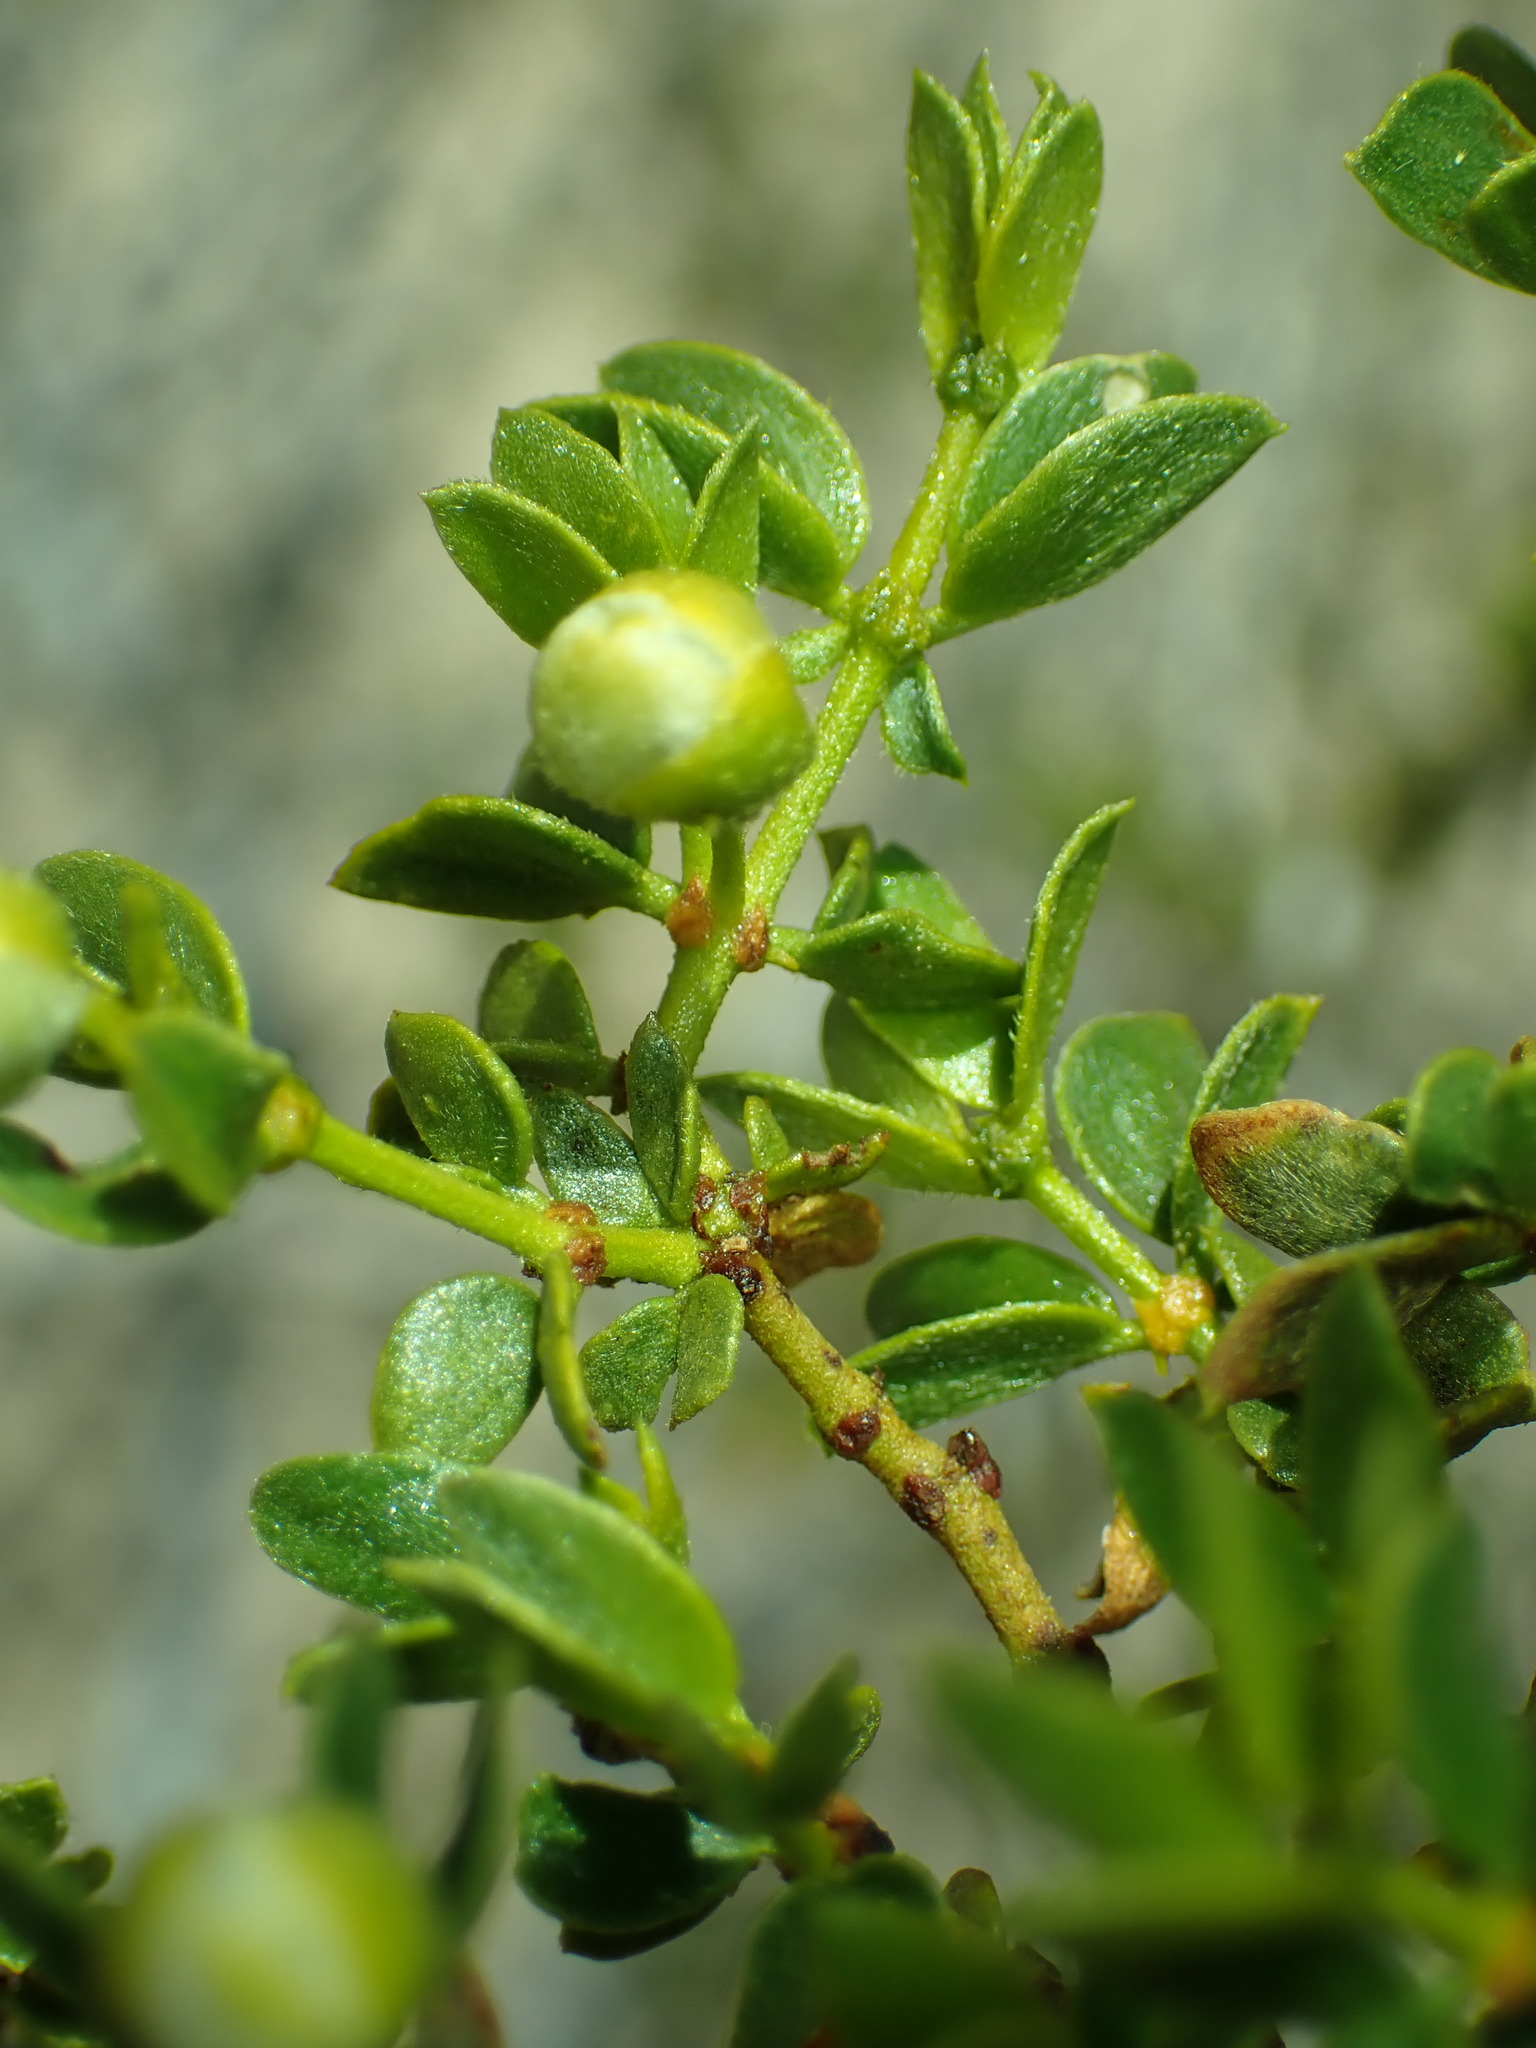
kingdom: Plantae
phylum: Tracheophyta
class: Magnoliopsida
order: Zygophyllales
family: Zygophyllaceae
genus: Larrea
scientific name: Larrea tridentata
